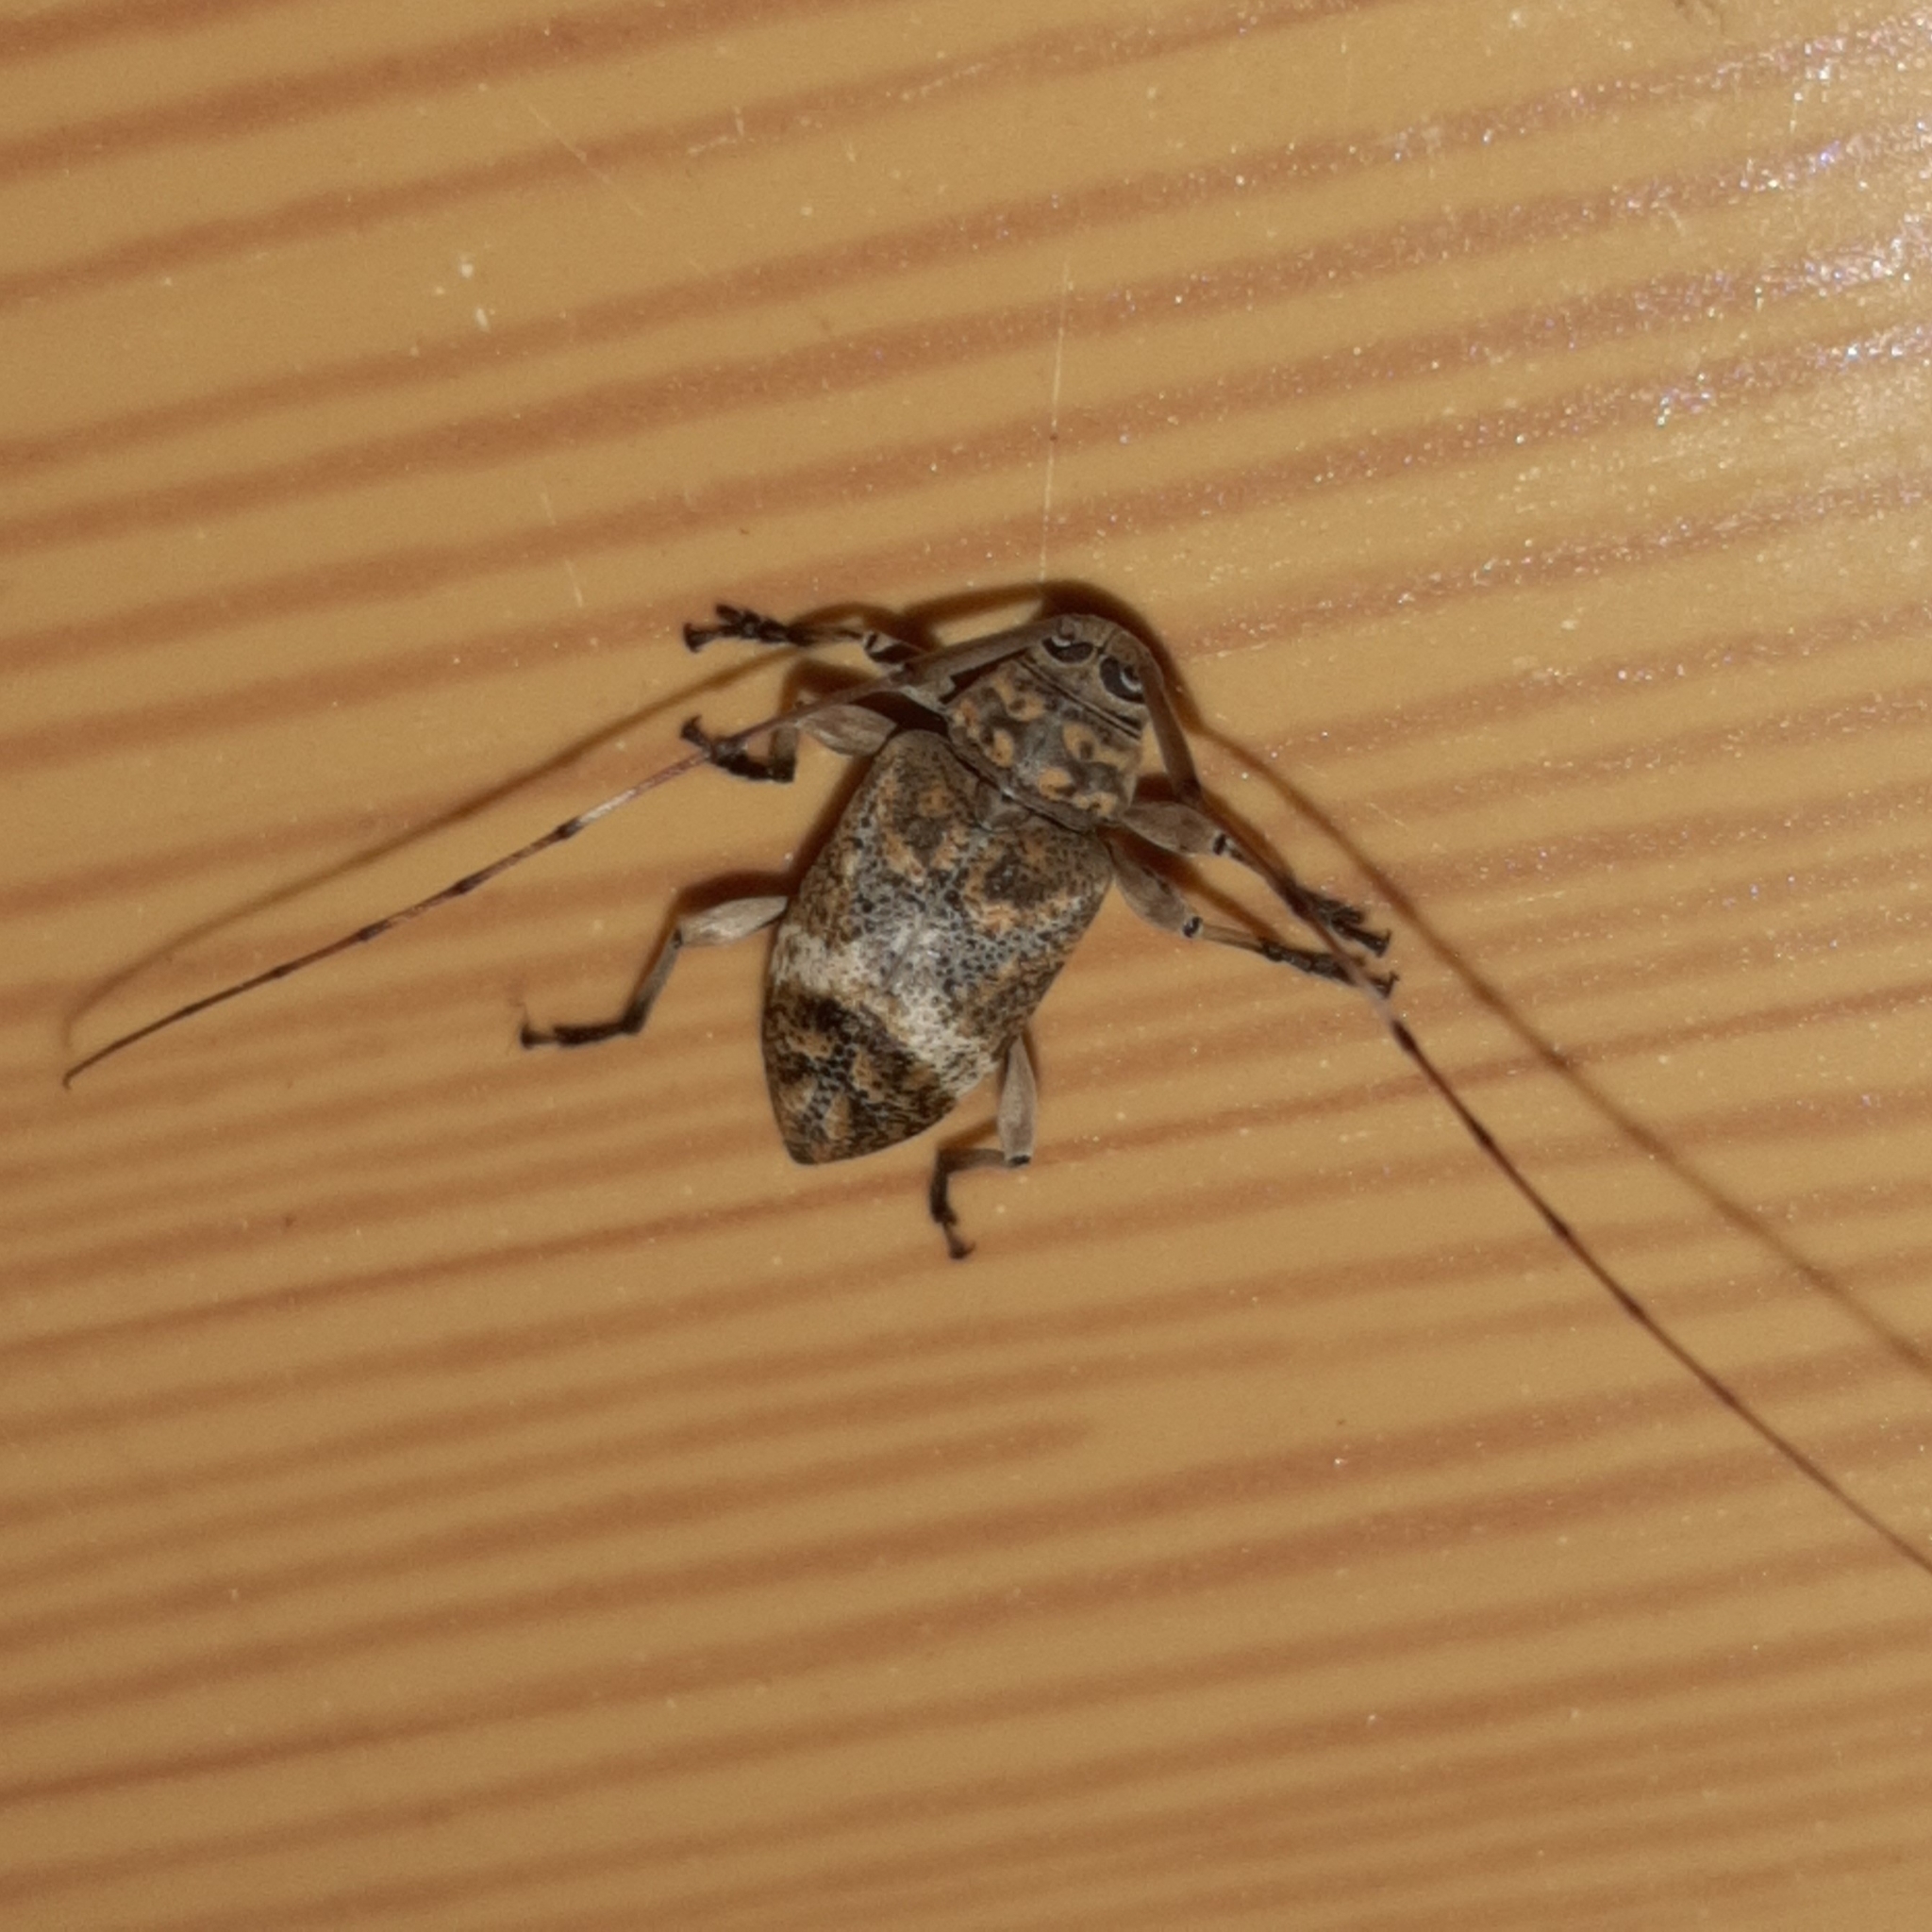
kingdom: Animalia
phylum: Arthropoda
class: Insecta
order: Coleoptera
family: Cerambycidae
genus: Atrypanius
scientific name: Atrypanius implexus
